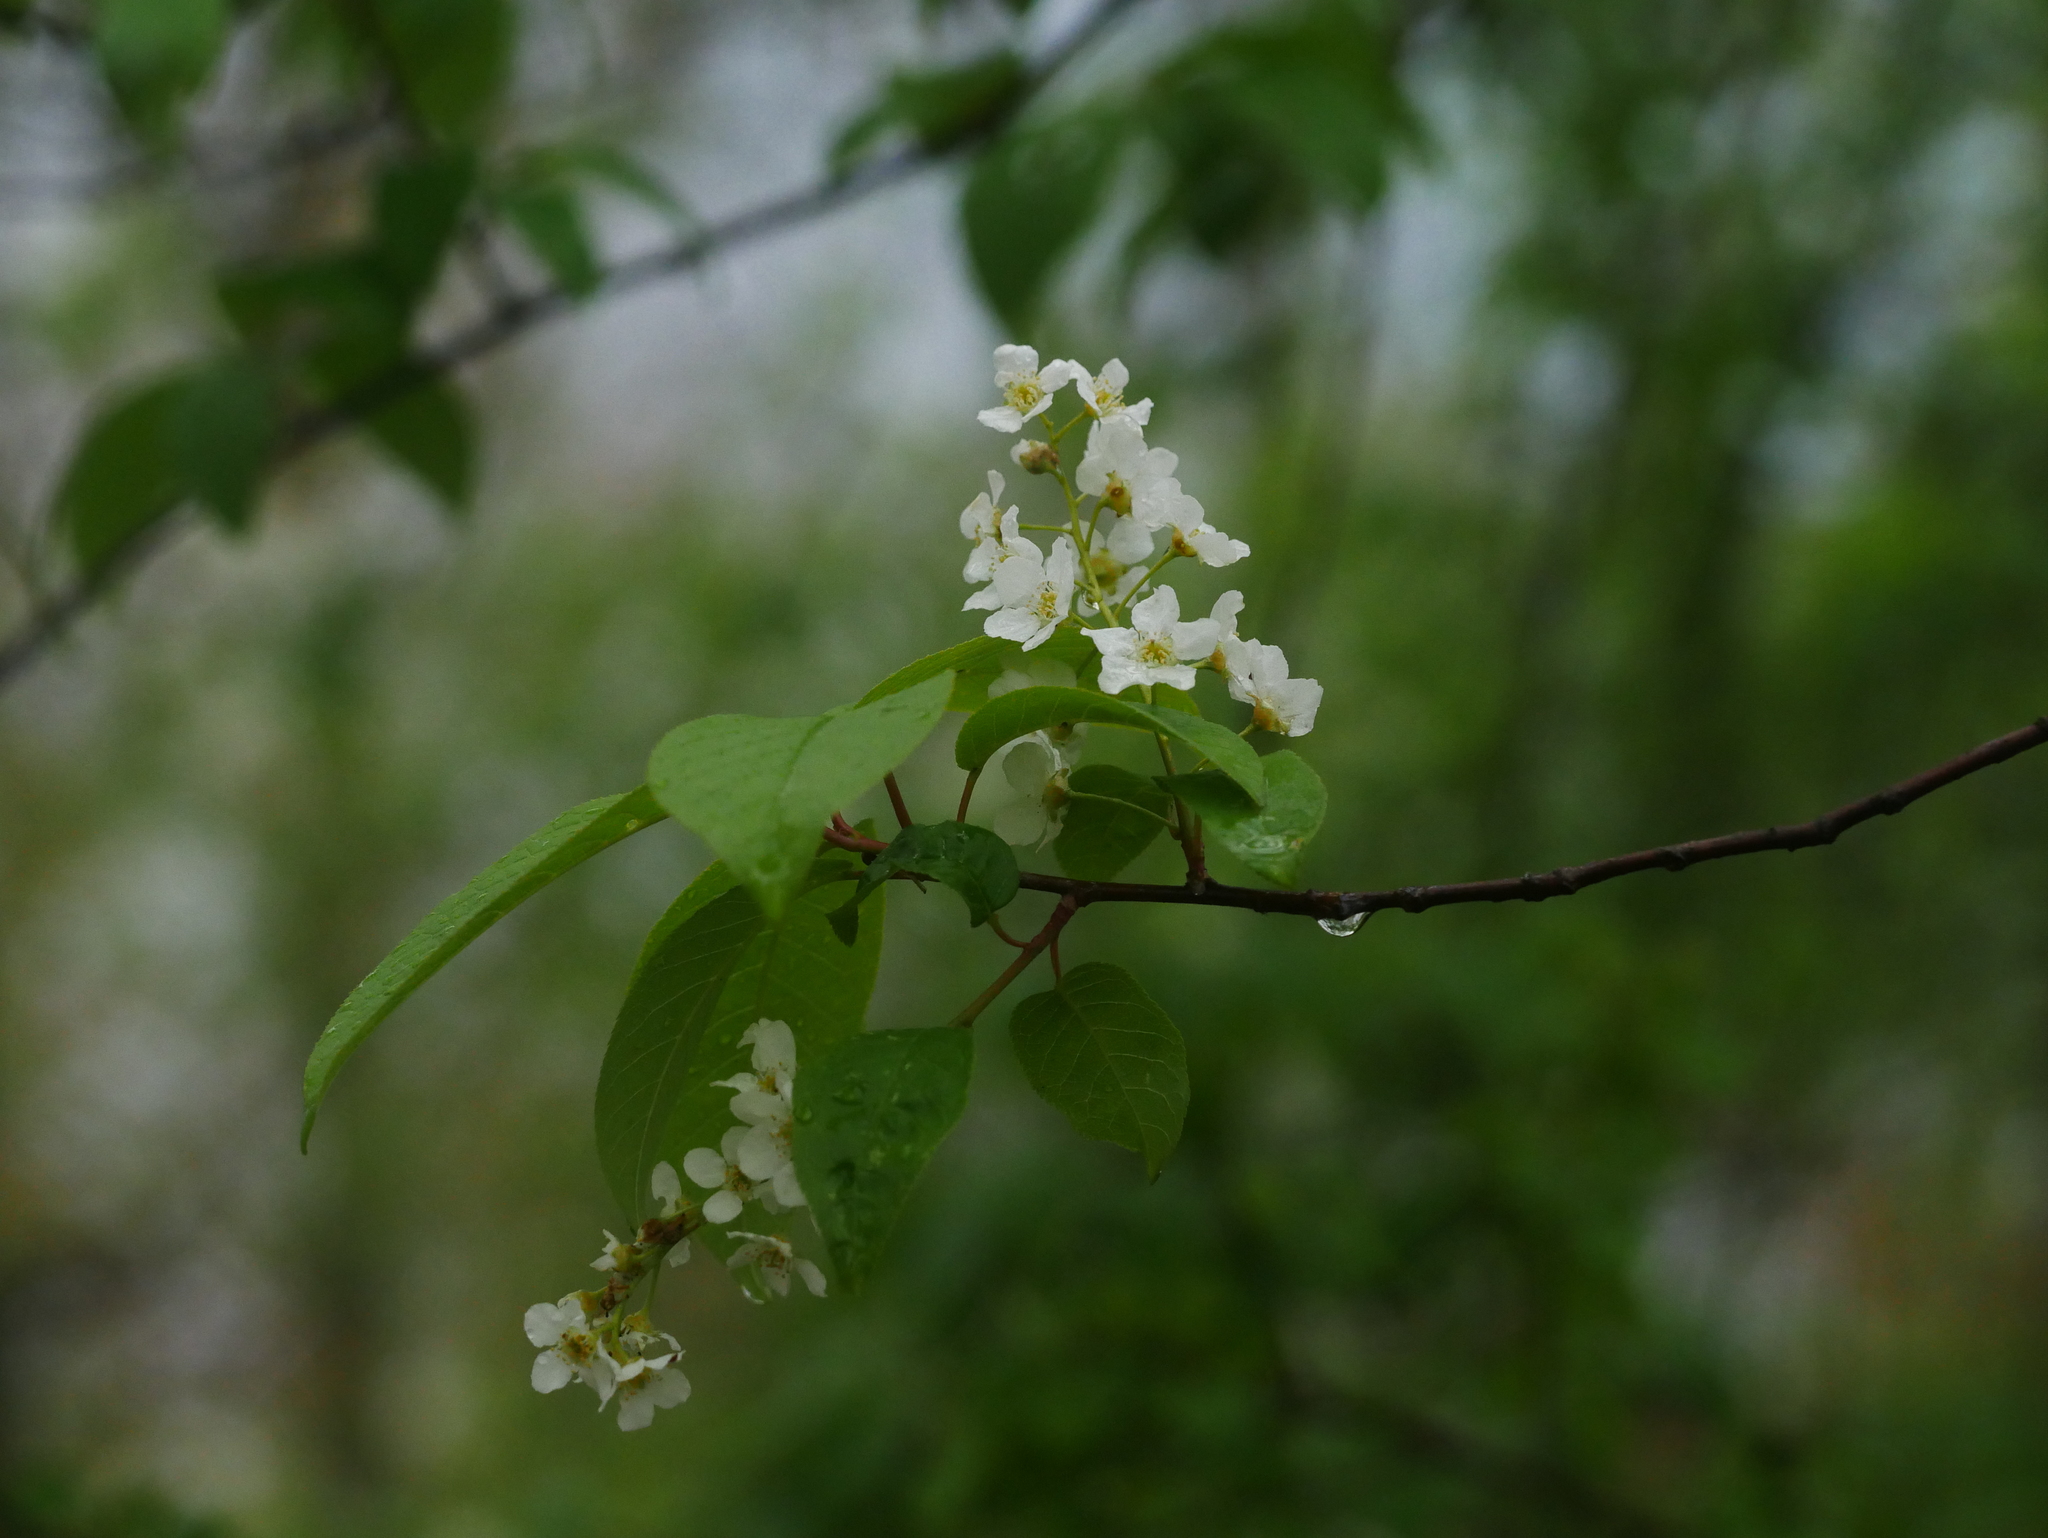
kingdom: Plantae
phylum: Tracheophyta
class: Magnoliopsida
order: Rosales
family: Rosaceae
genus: Prunus
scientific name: Prunus padus
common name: Bird cherry
